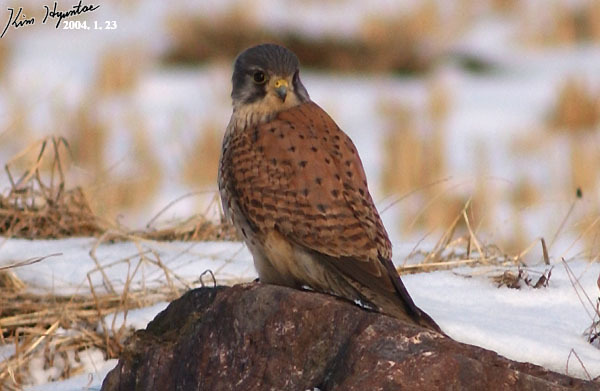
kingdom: Animalia
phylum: Chordata
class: Aves
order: Falconiformes
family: Falconidae
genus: Falco
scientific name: Falco tinnunculus
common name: Common kestrel
